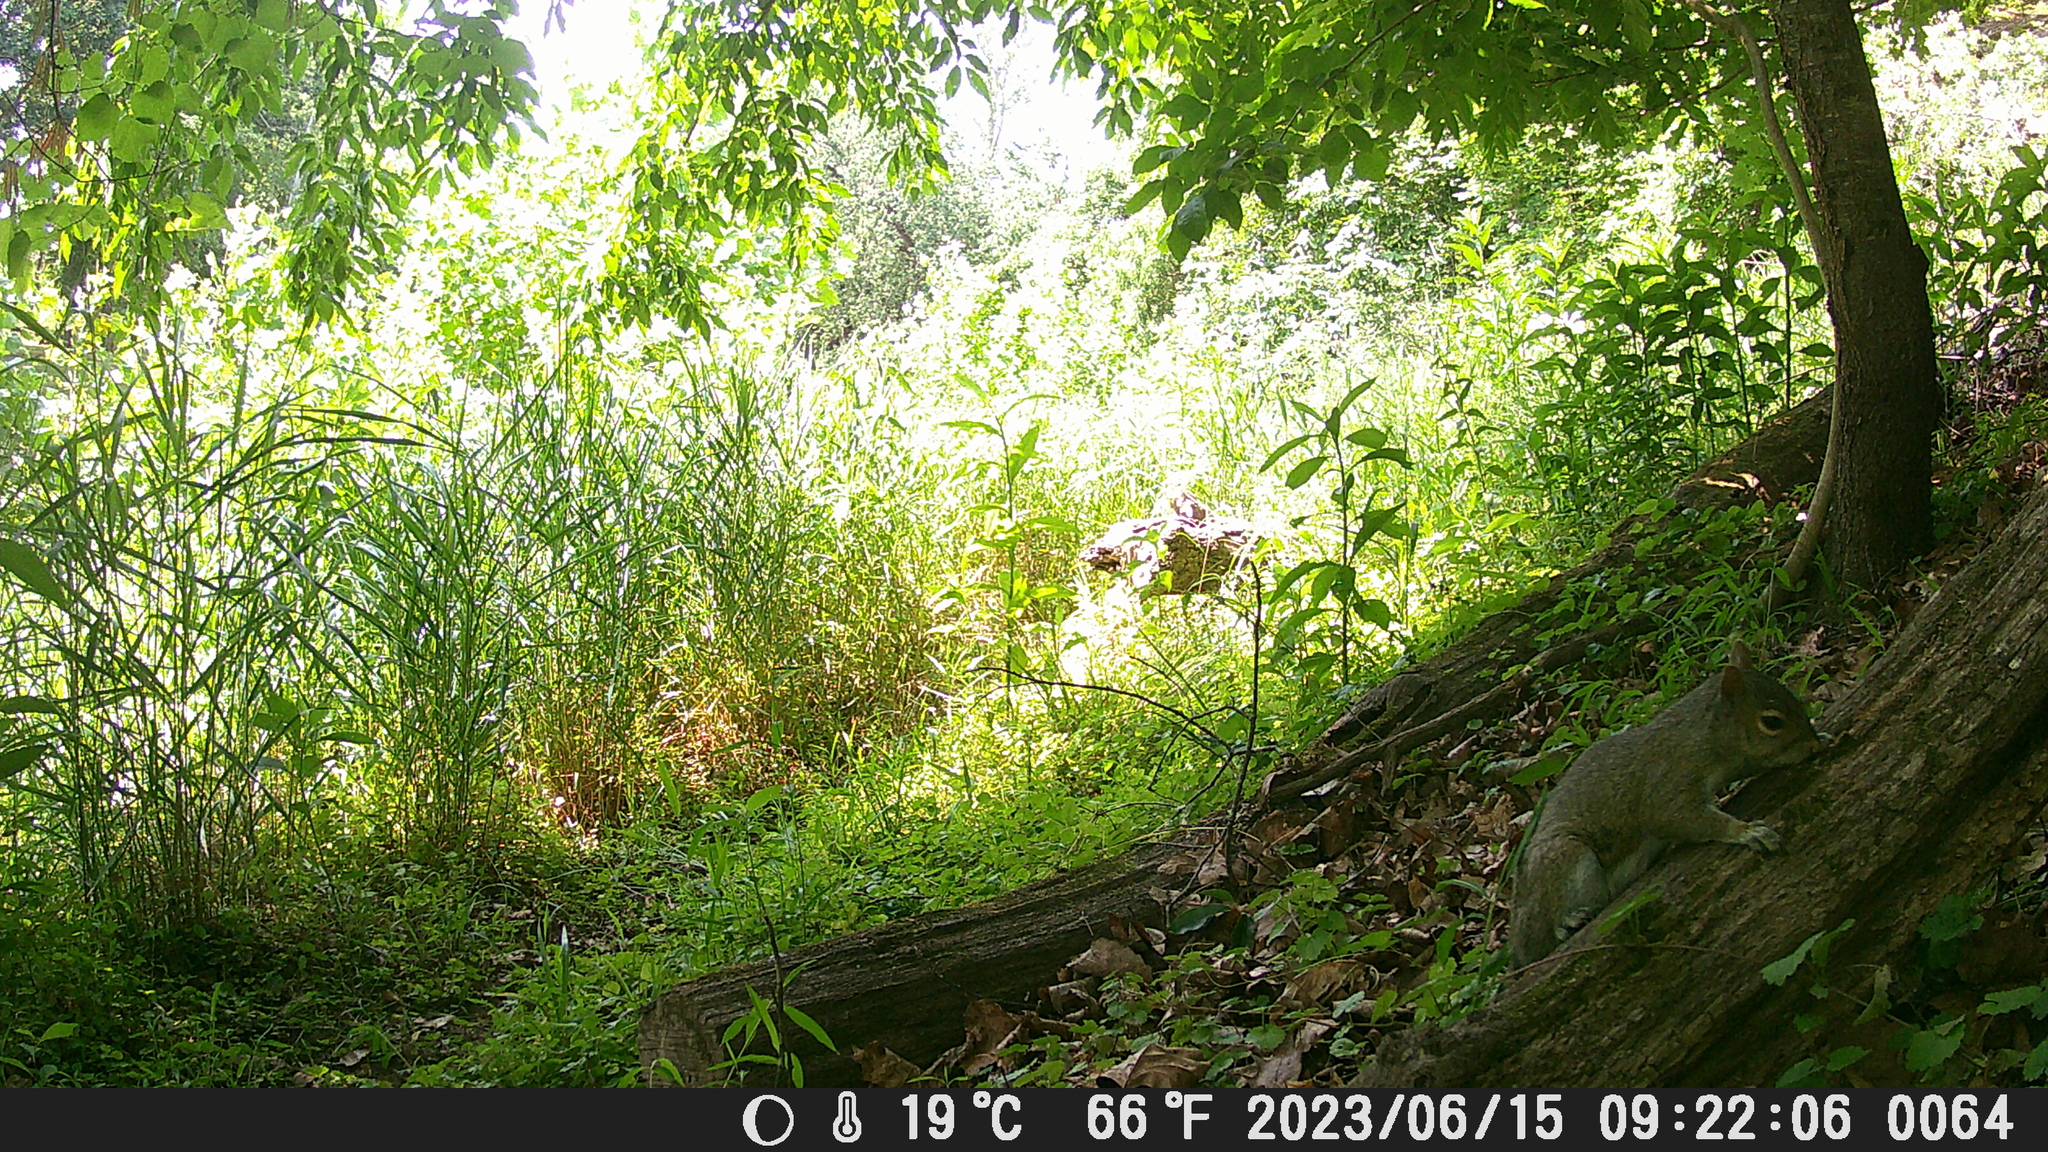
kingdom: Animalia
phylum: Chordata
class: Mammalia
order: Rodentia
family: Sciuridae
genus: Sciurus
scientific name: Sciurus carolinensis
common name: Eastern gray squirrel
